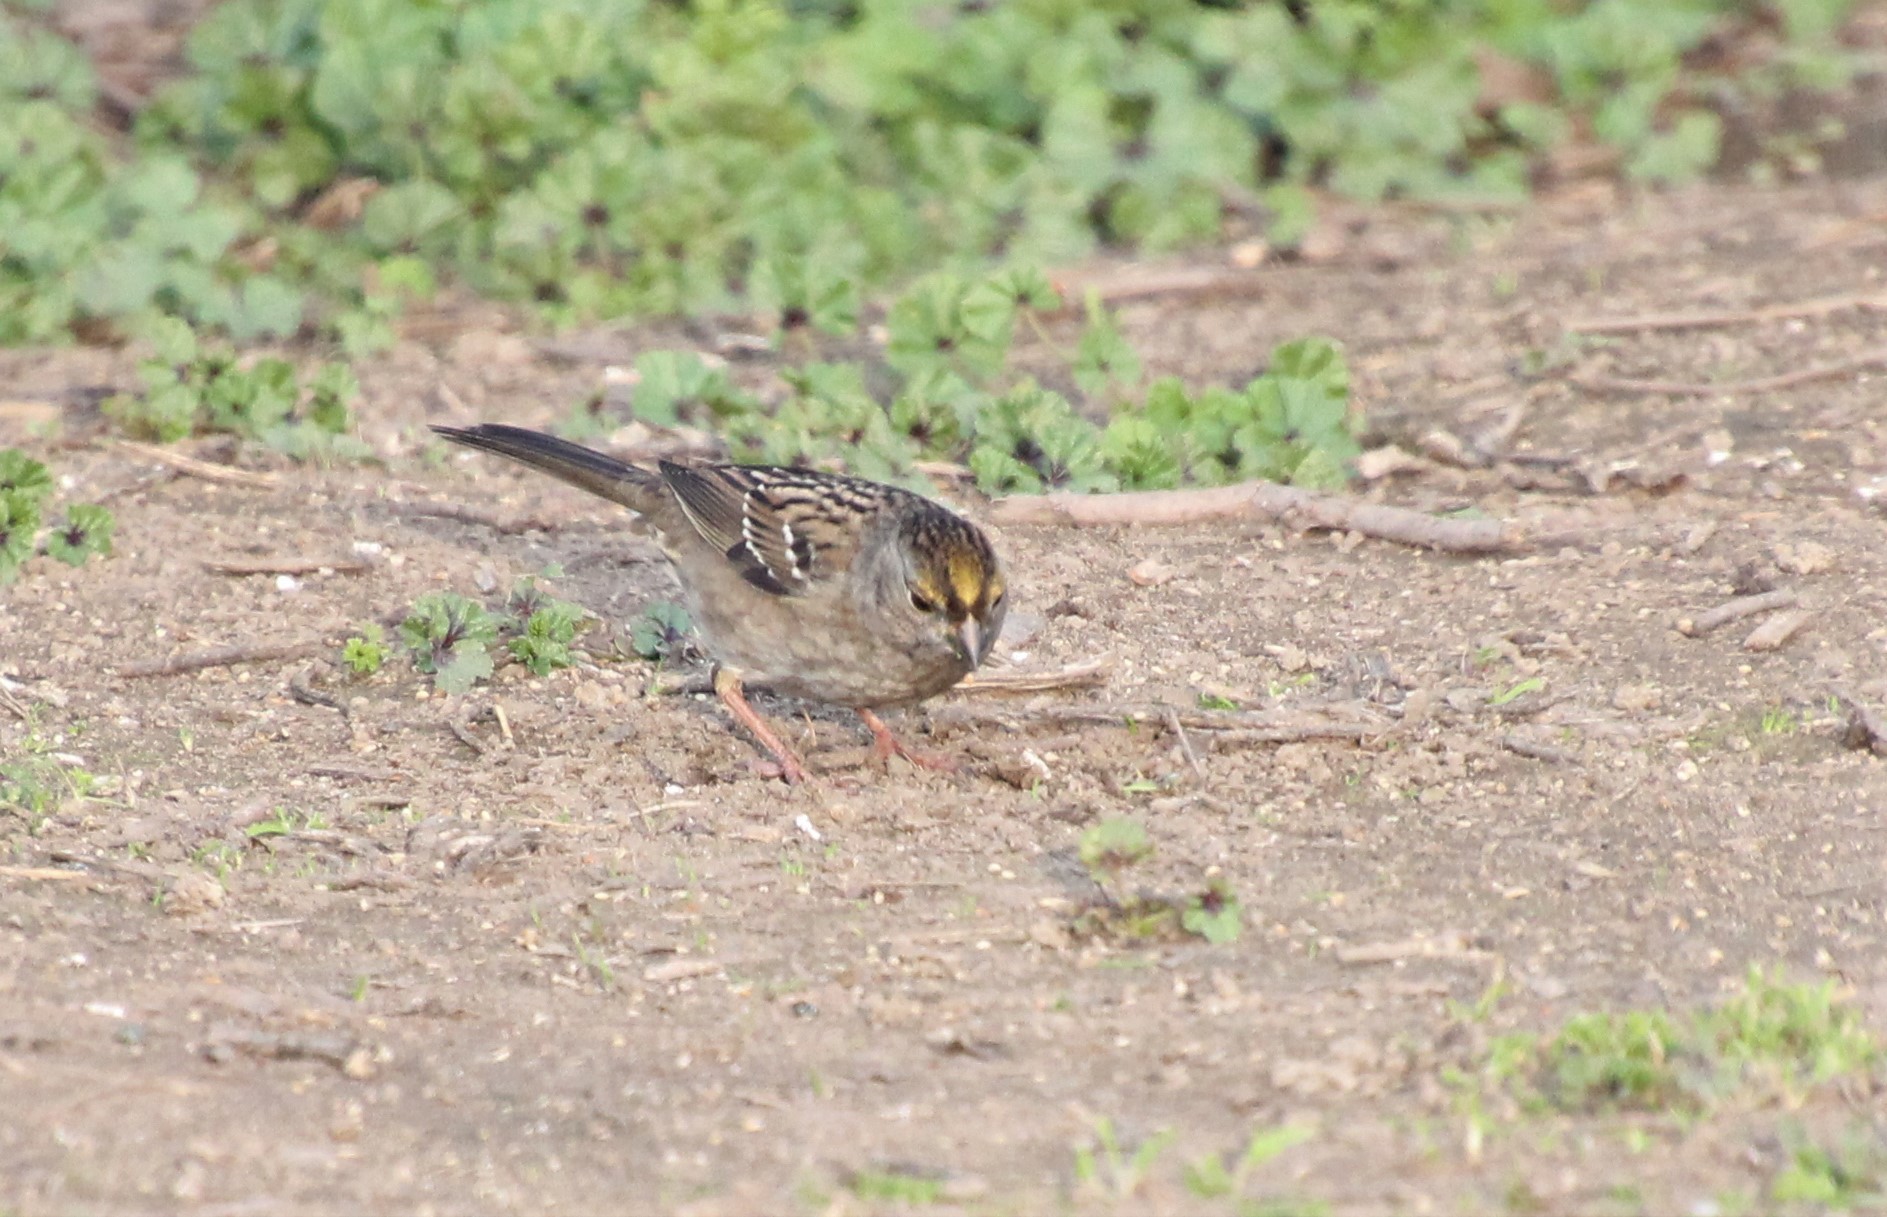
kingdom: Animalia
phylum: Chordata
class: Aves
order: Passeriformes
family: Passerellidae
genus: Zonotrichia
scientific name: Zonotrichia atricapilla
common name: Golden-crowned sparrow
